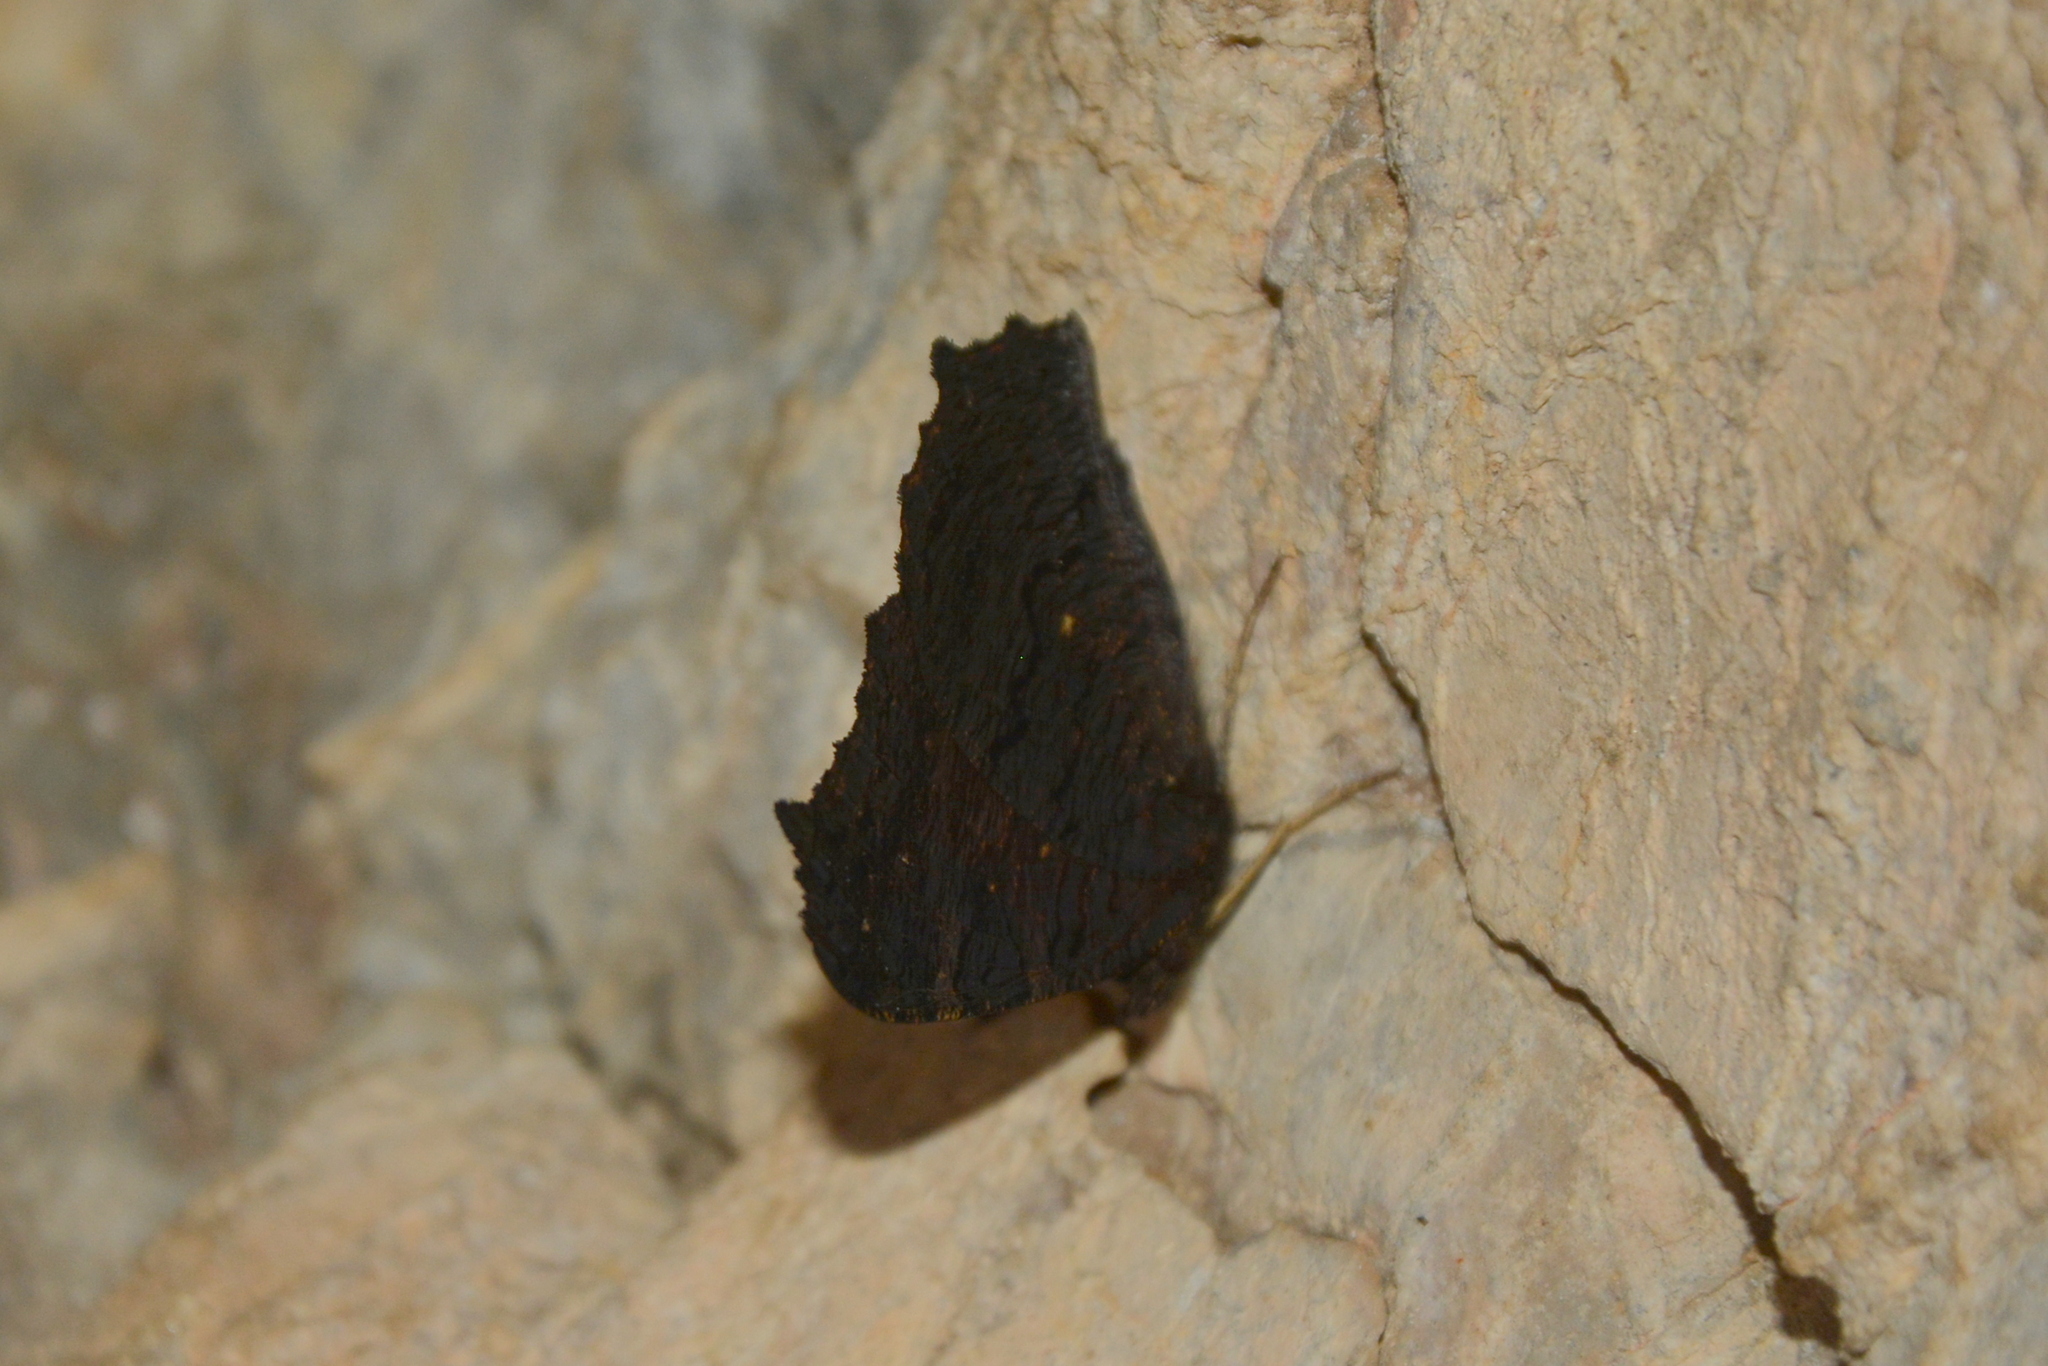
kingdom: Animalia
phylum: Arthropoda
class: Insecta
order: Lepidoptera
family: Nymphalidae
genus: Aglais
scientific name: Aglais io
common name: Peacock
